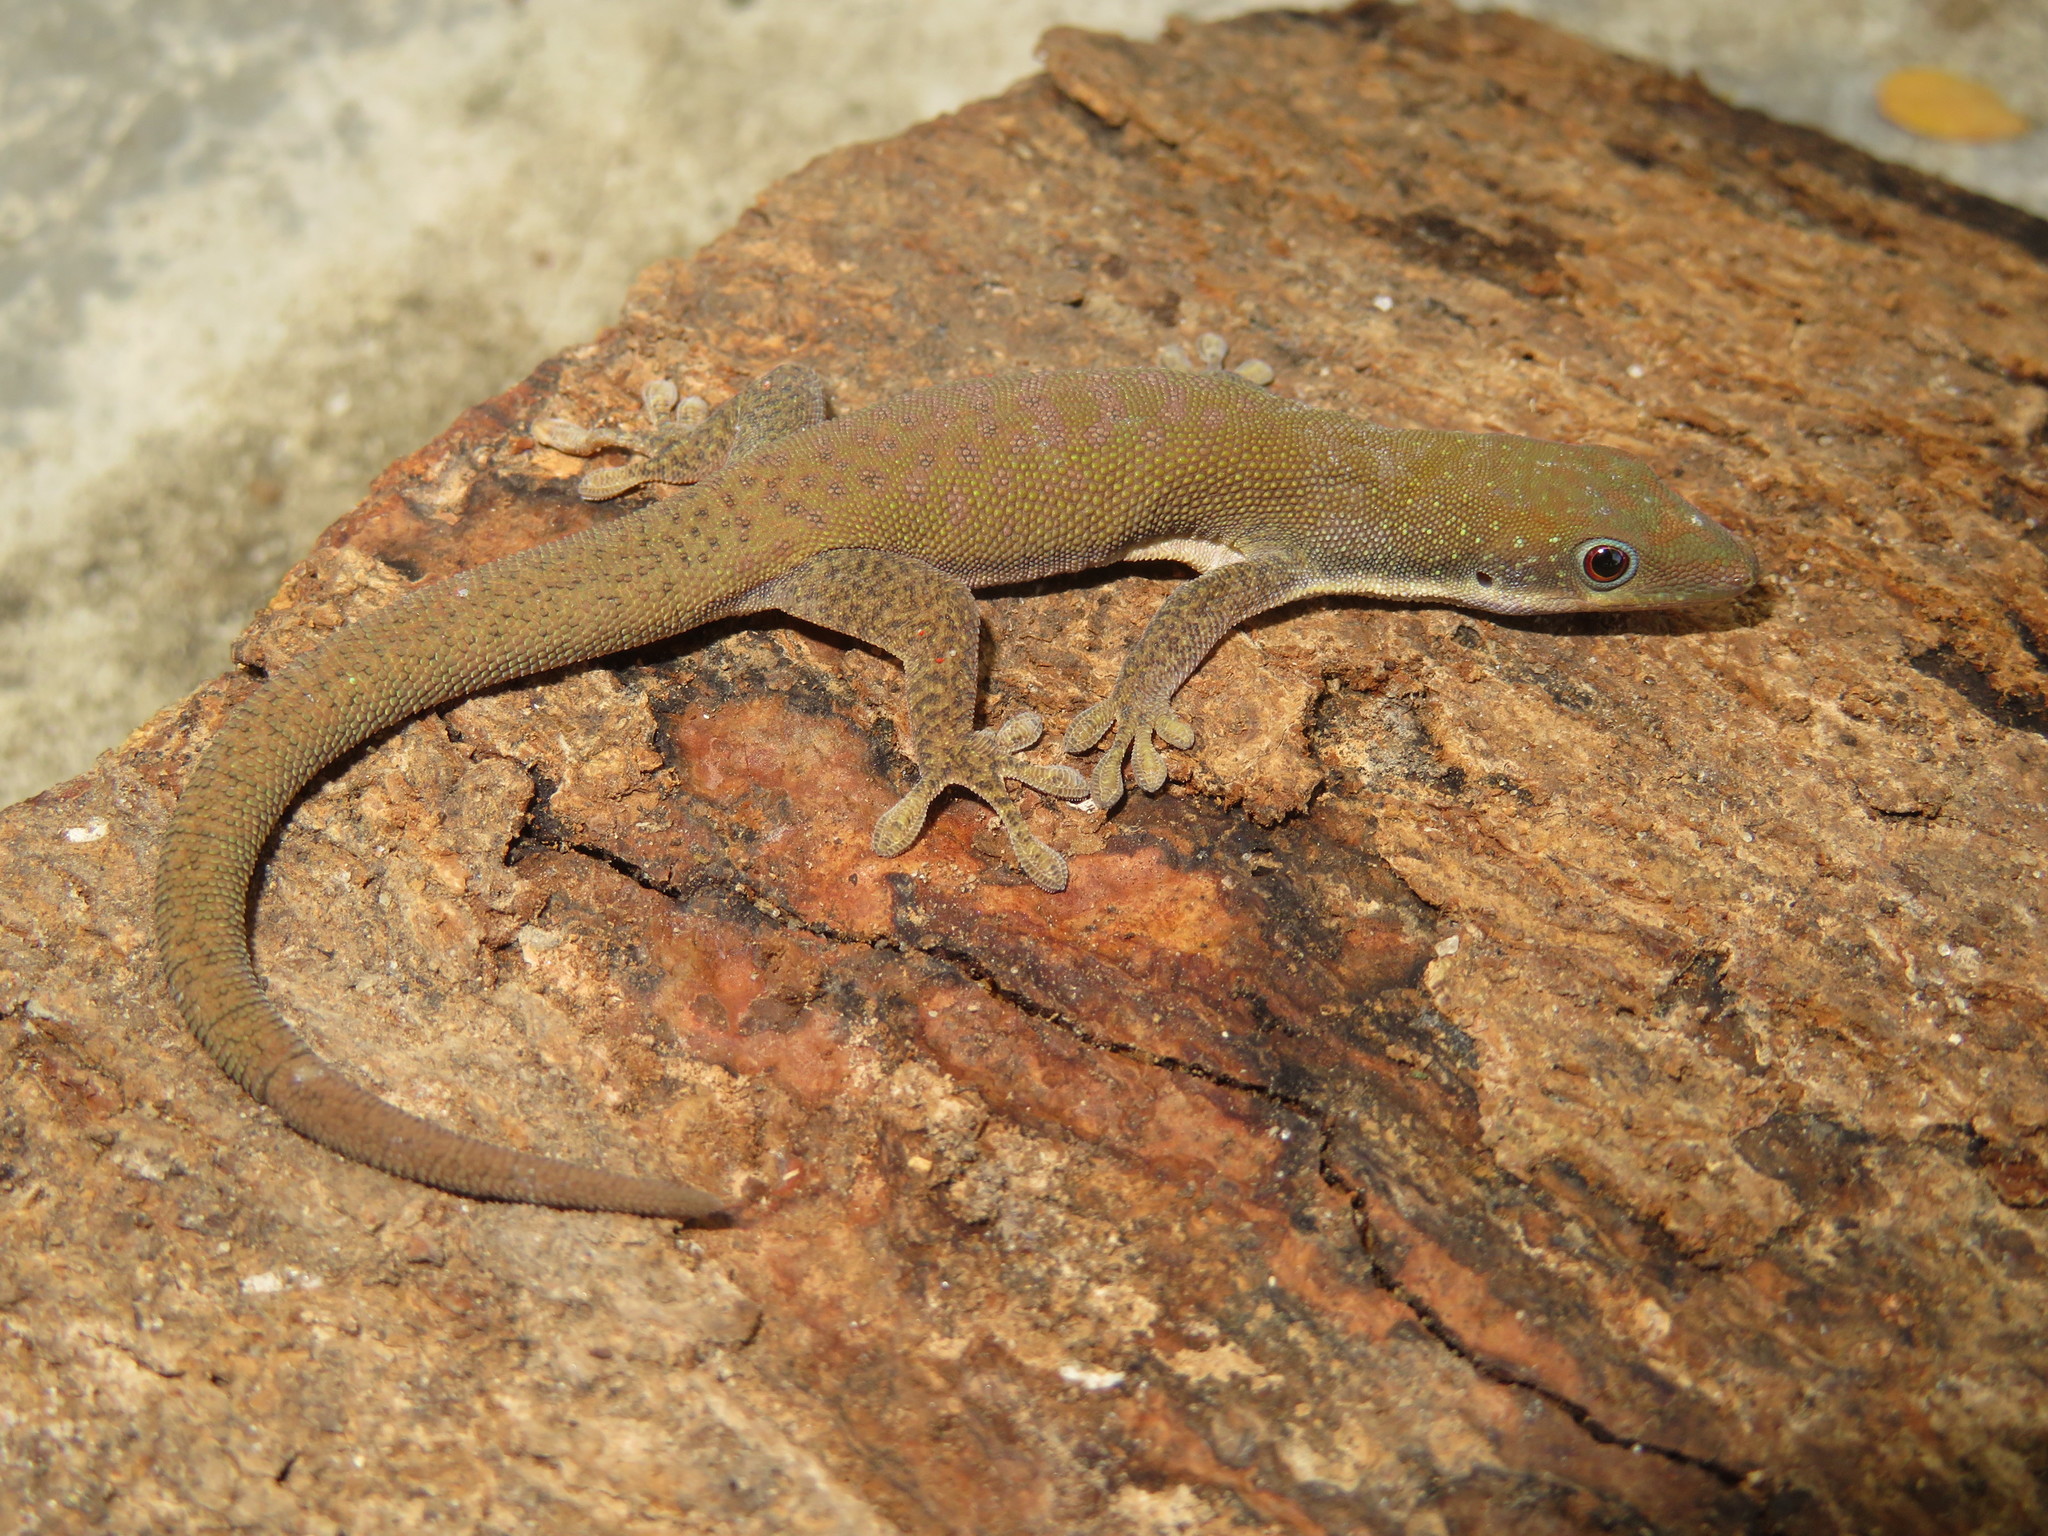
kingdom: Animalia
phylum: Chordata
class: Squamata
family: Gekkonidae
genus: Phelsuma
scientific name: Phelsuma dubia
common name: Zanzibar day gecko
